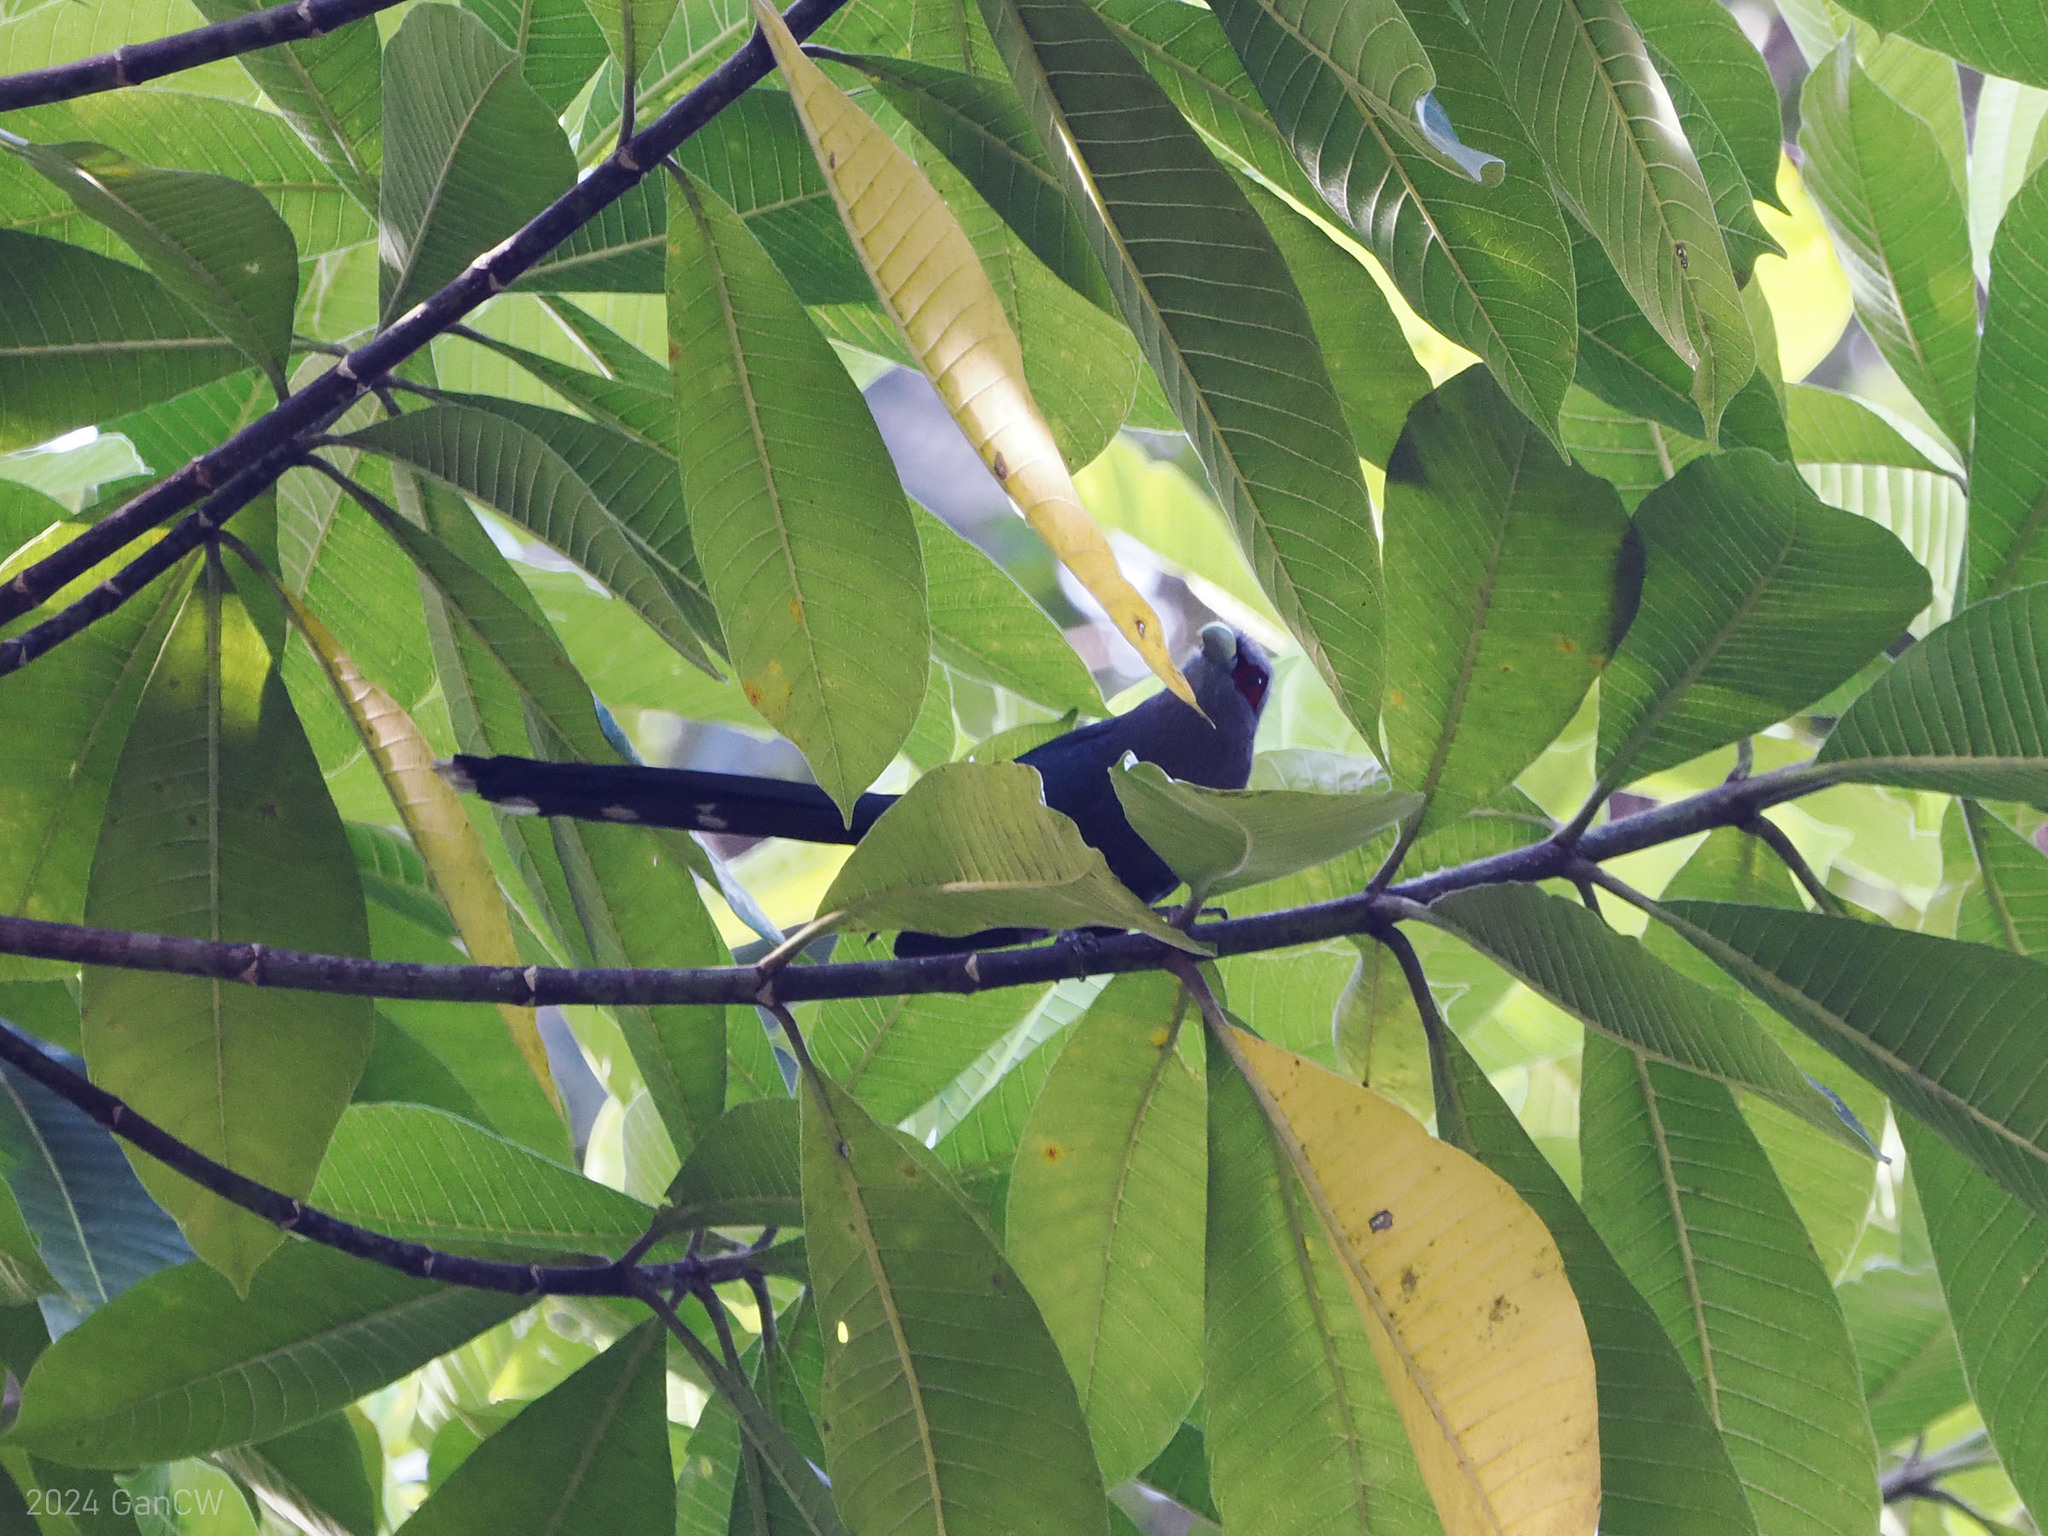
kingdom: Animalia
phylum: Chordata
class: Aves
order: Cuculiformes
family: Cuculidae
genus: Rhopodytes
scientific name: Rhopodytes diardi
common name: Lesser green-billed malcoha
